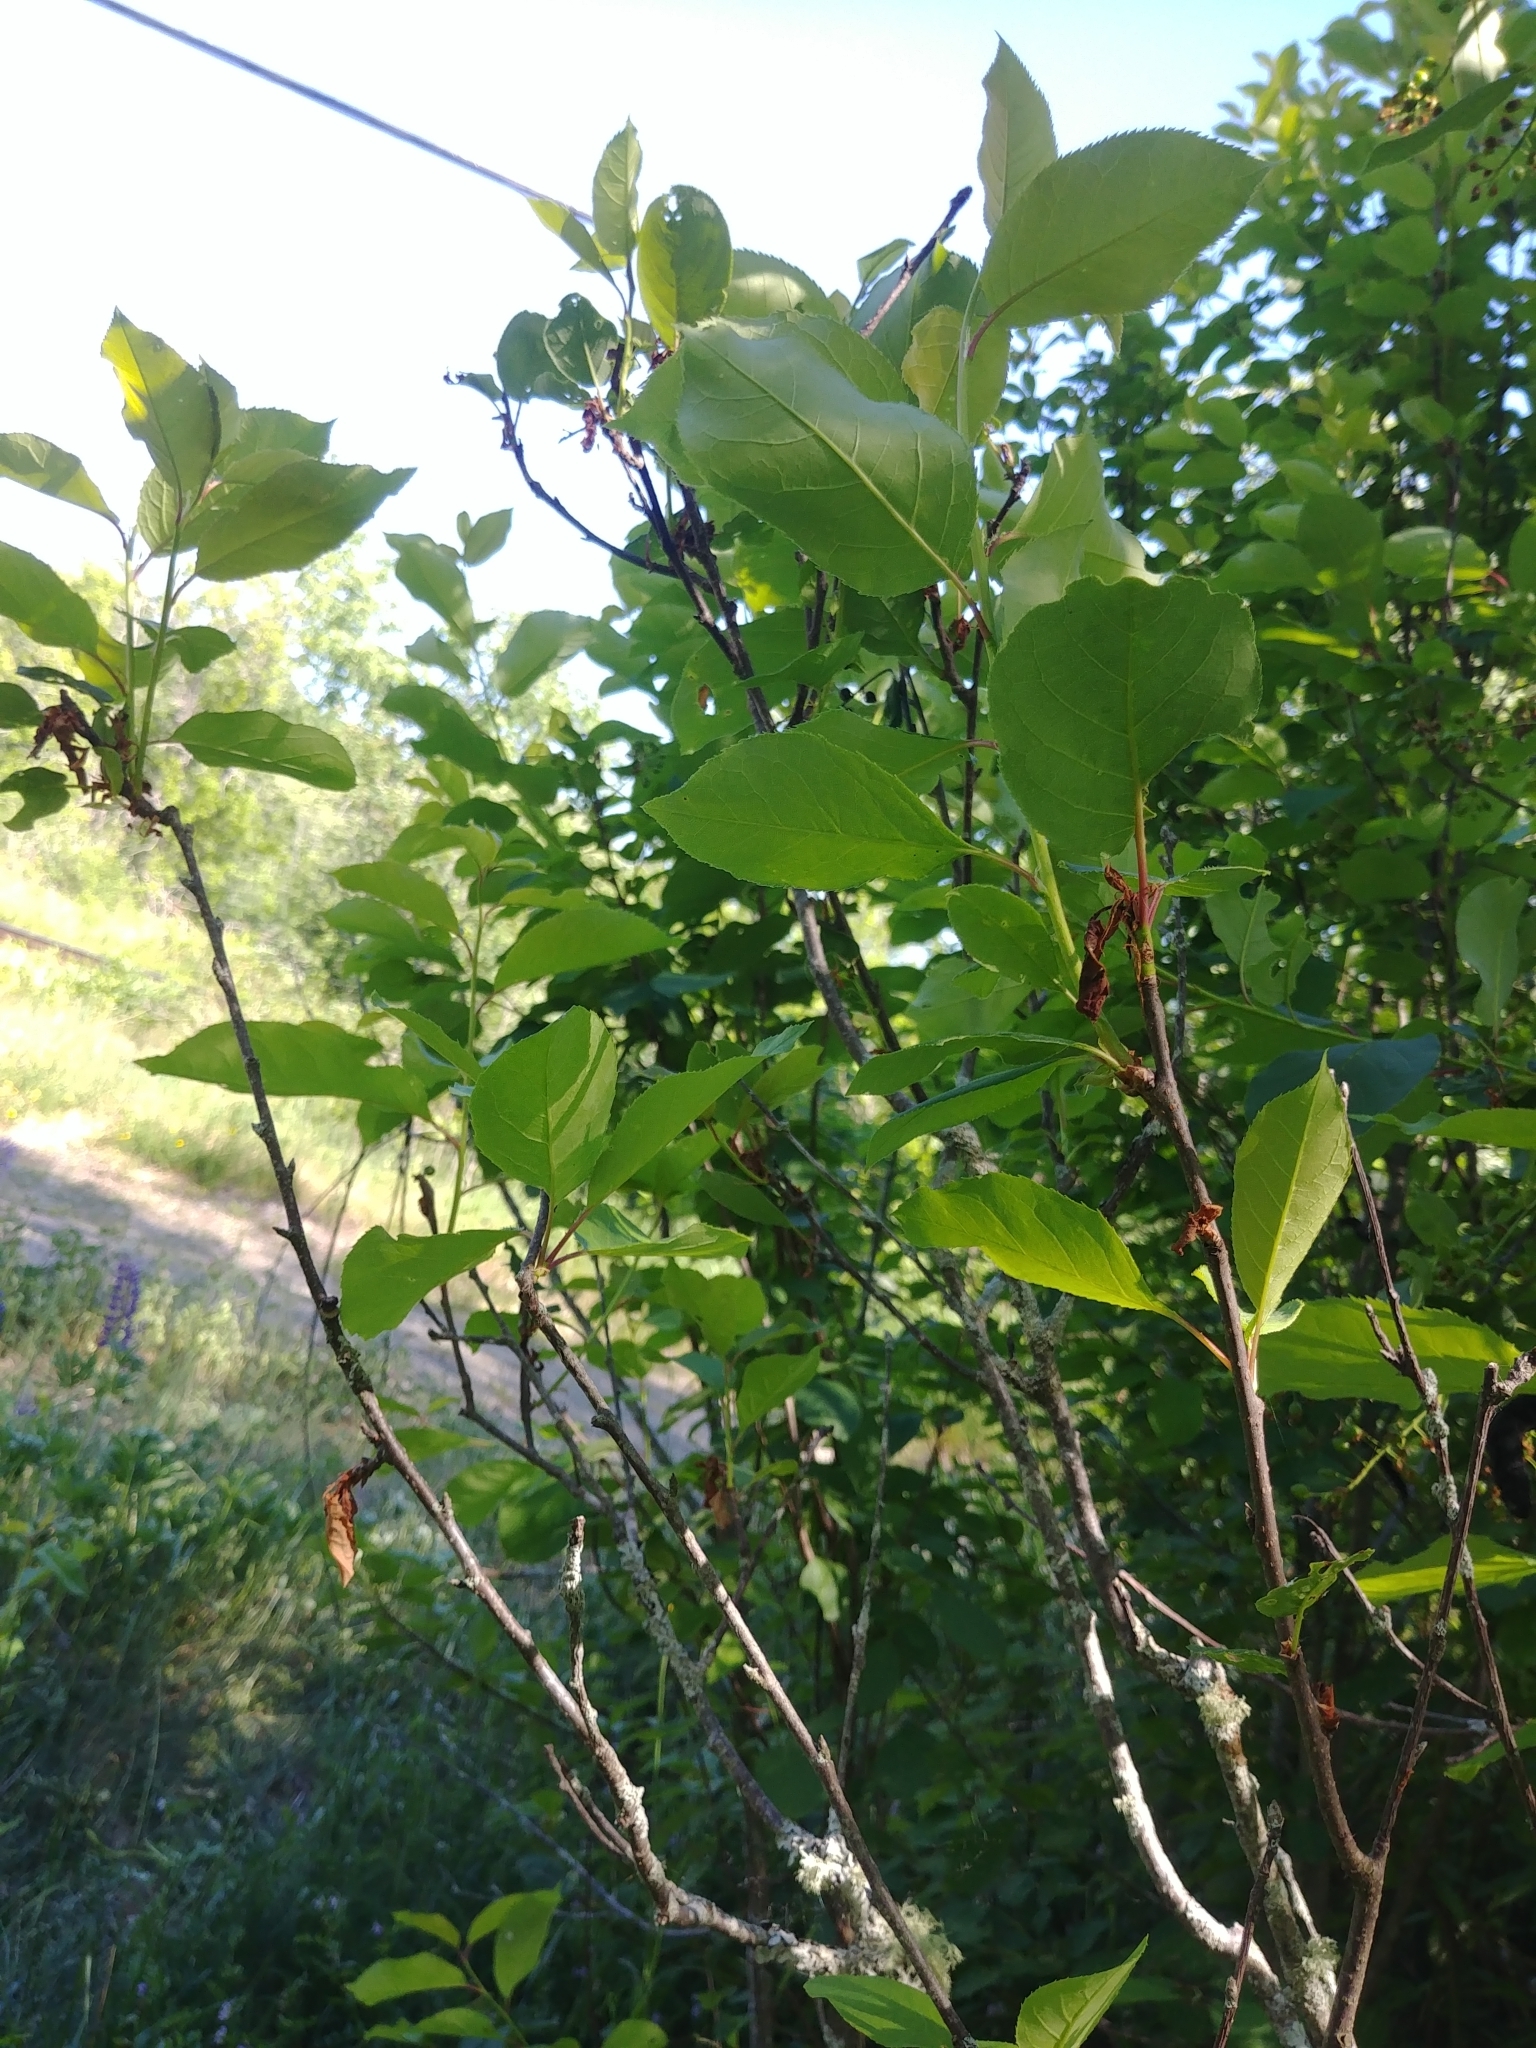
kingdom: Plantae
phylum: Tracheophyta
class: Magnoliopsida
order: Rosales
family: Rosaceae
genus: Prunus
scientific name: Prunus virginiana
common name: Chokecherry
